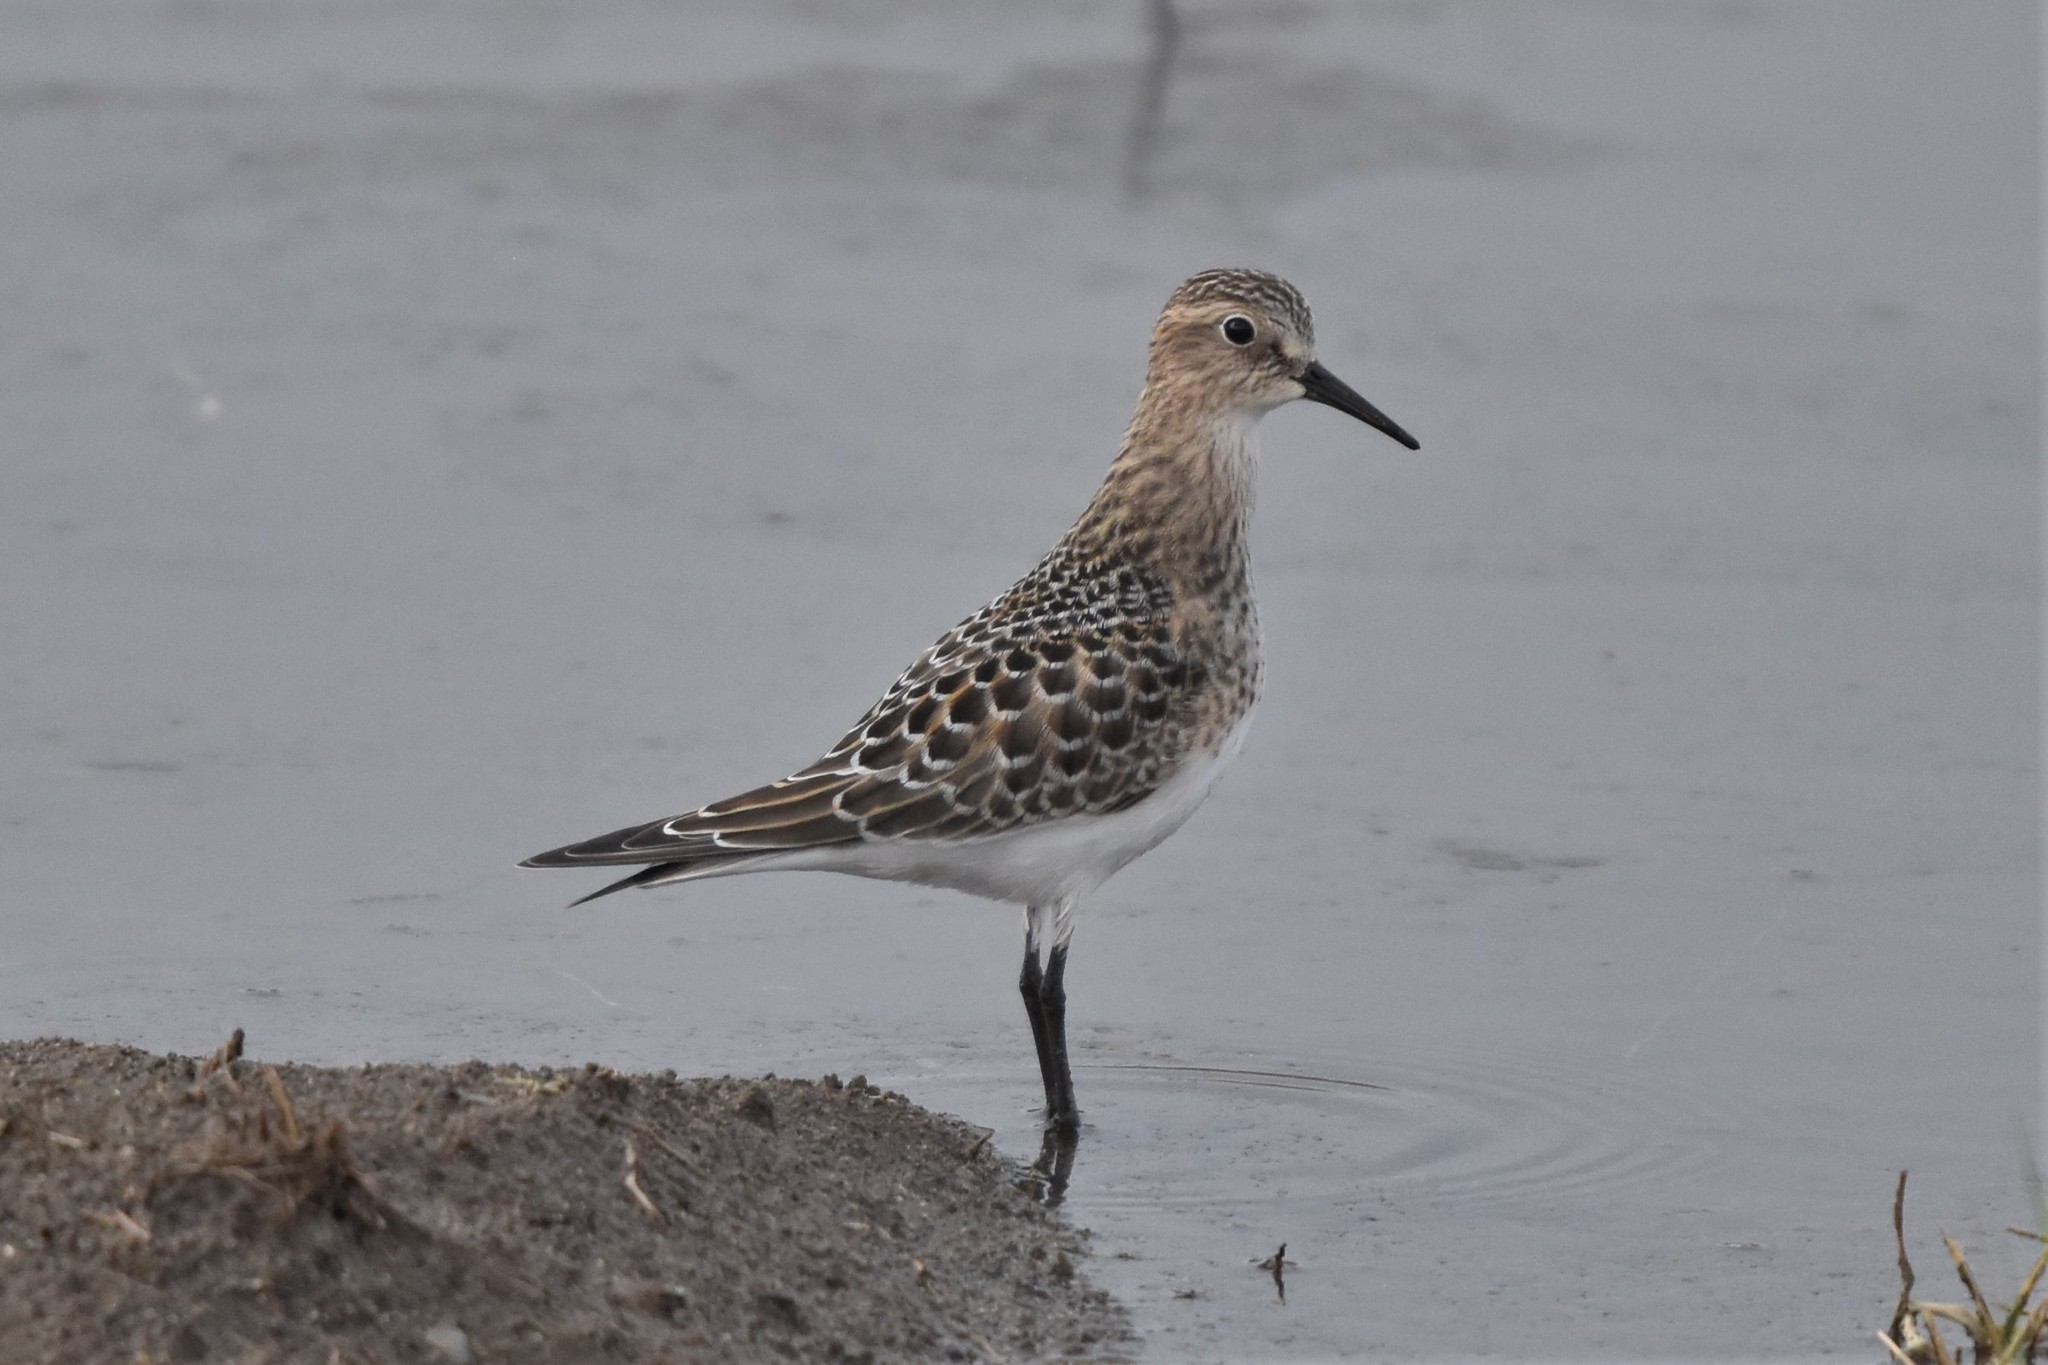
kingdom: Animalia
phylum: Chordata
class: Aves
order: Charadriiformes
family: Scolopacidae
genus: Calidris
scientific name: Calidris bairdii
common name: Baird's sandpiper
